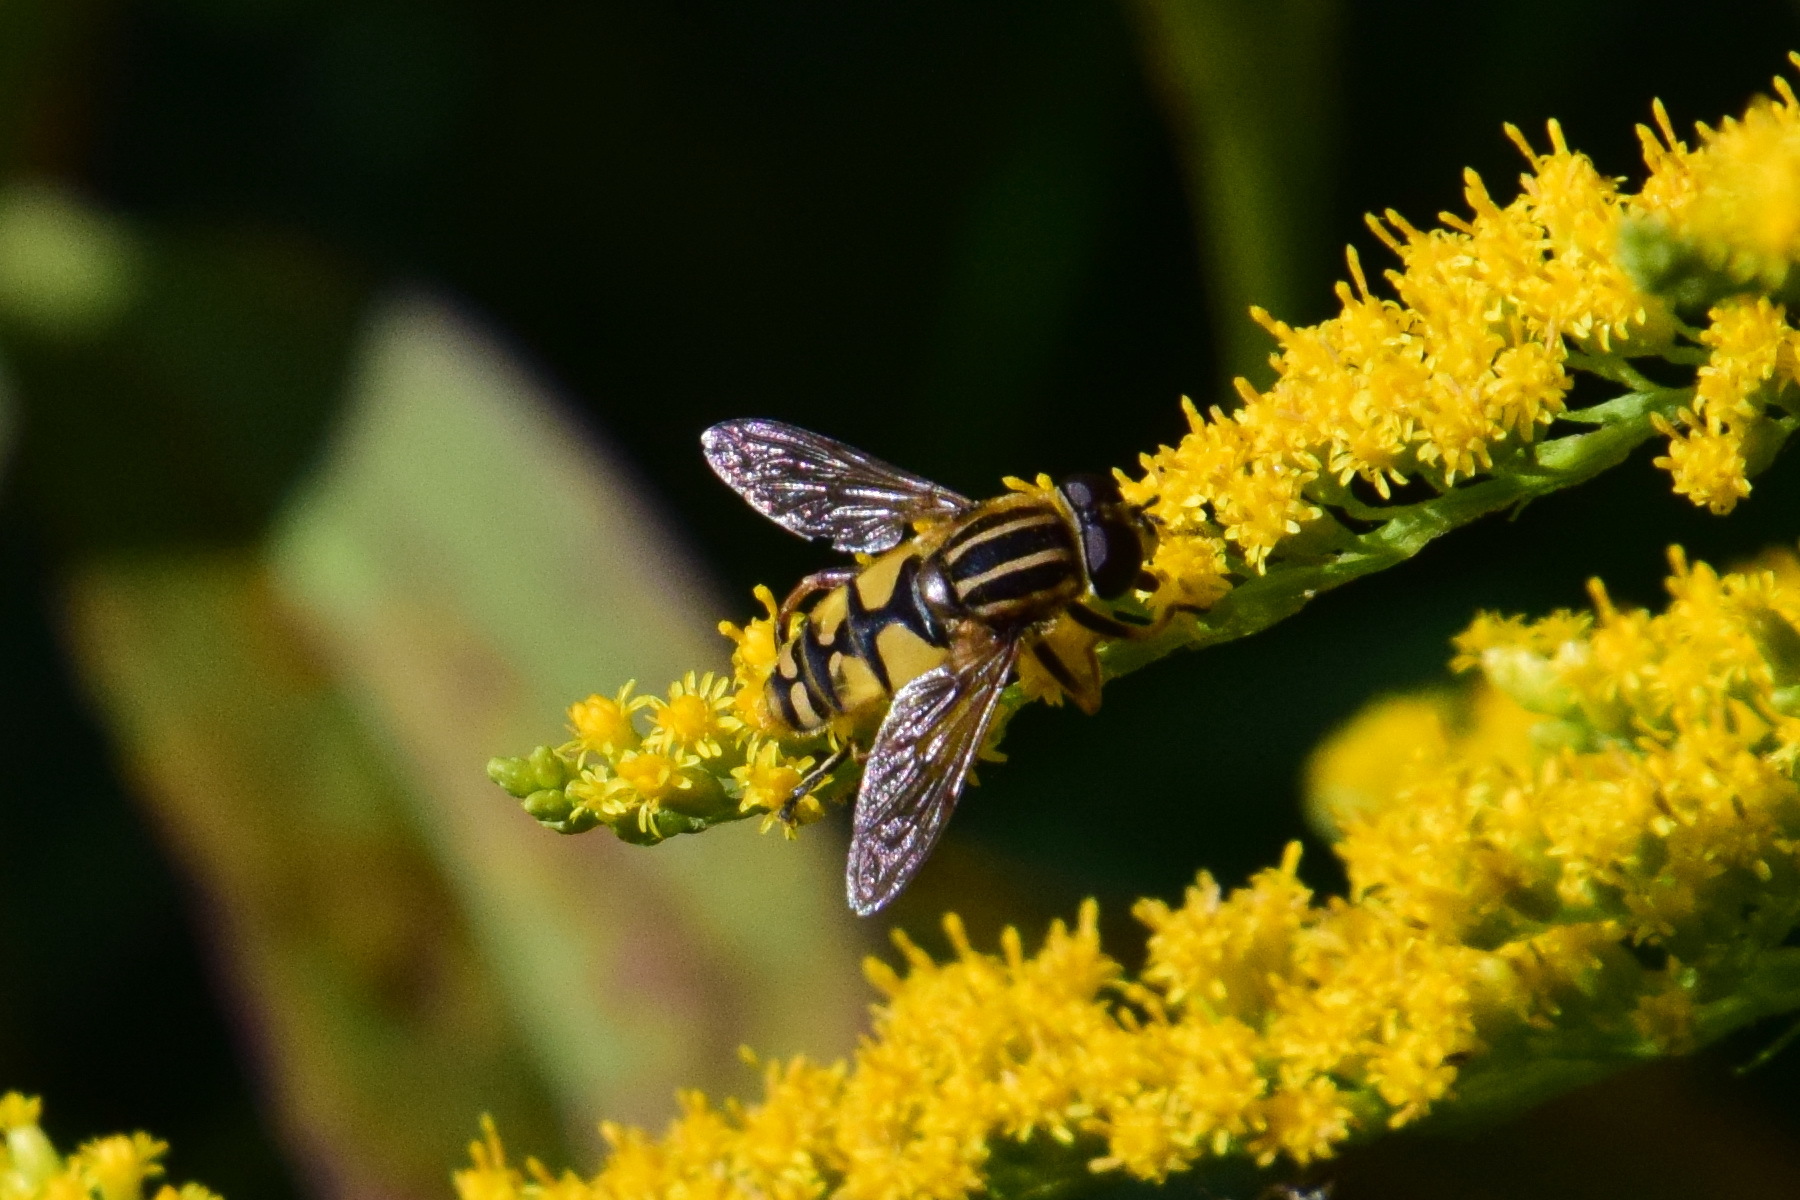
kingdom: Animalia
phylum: Arthropoda
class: Insecta
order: Diptera
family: Syrphidae
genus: Helophilus
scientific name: Helophilus pendulus
